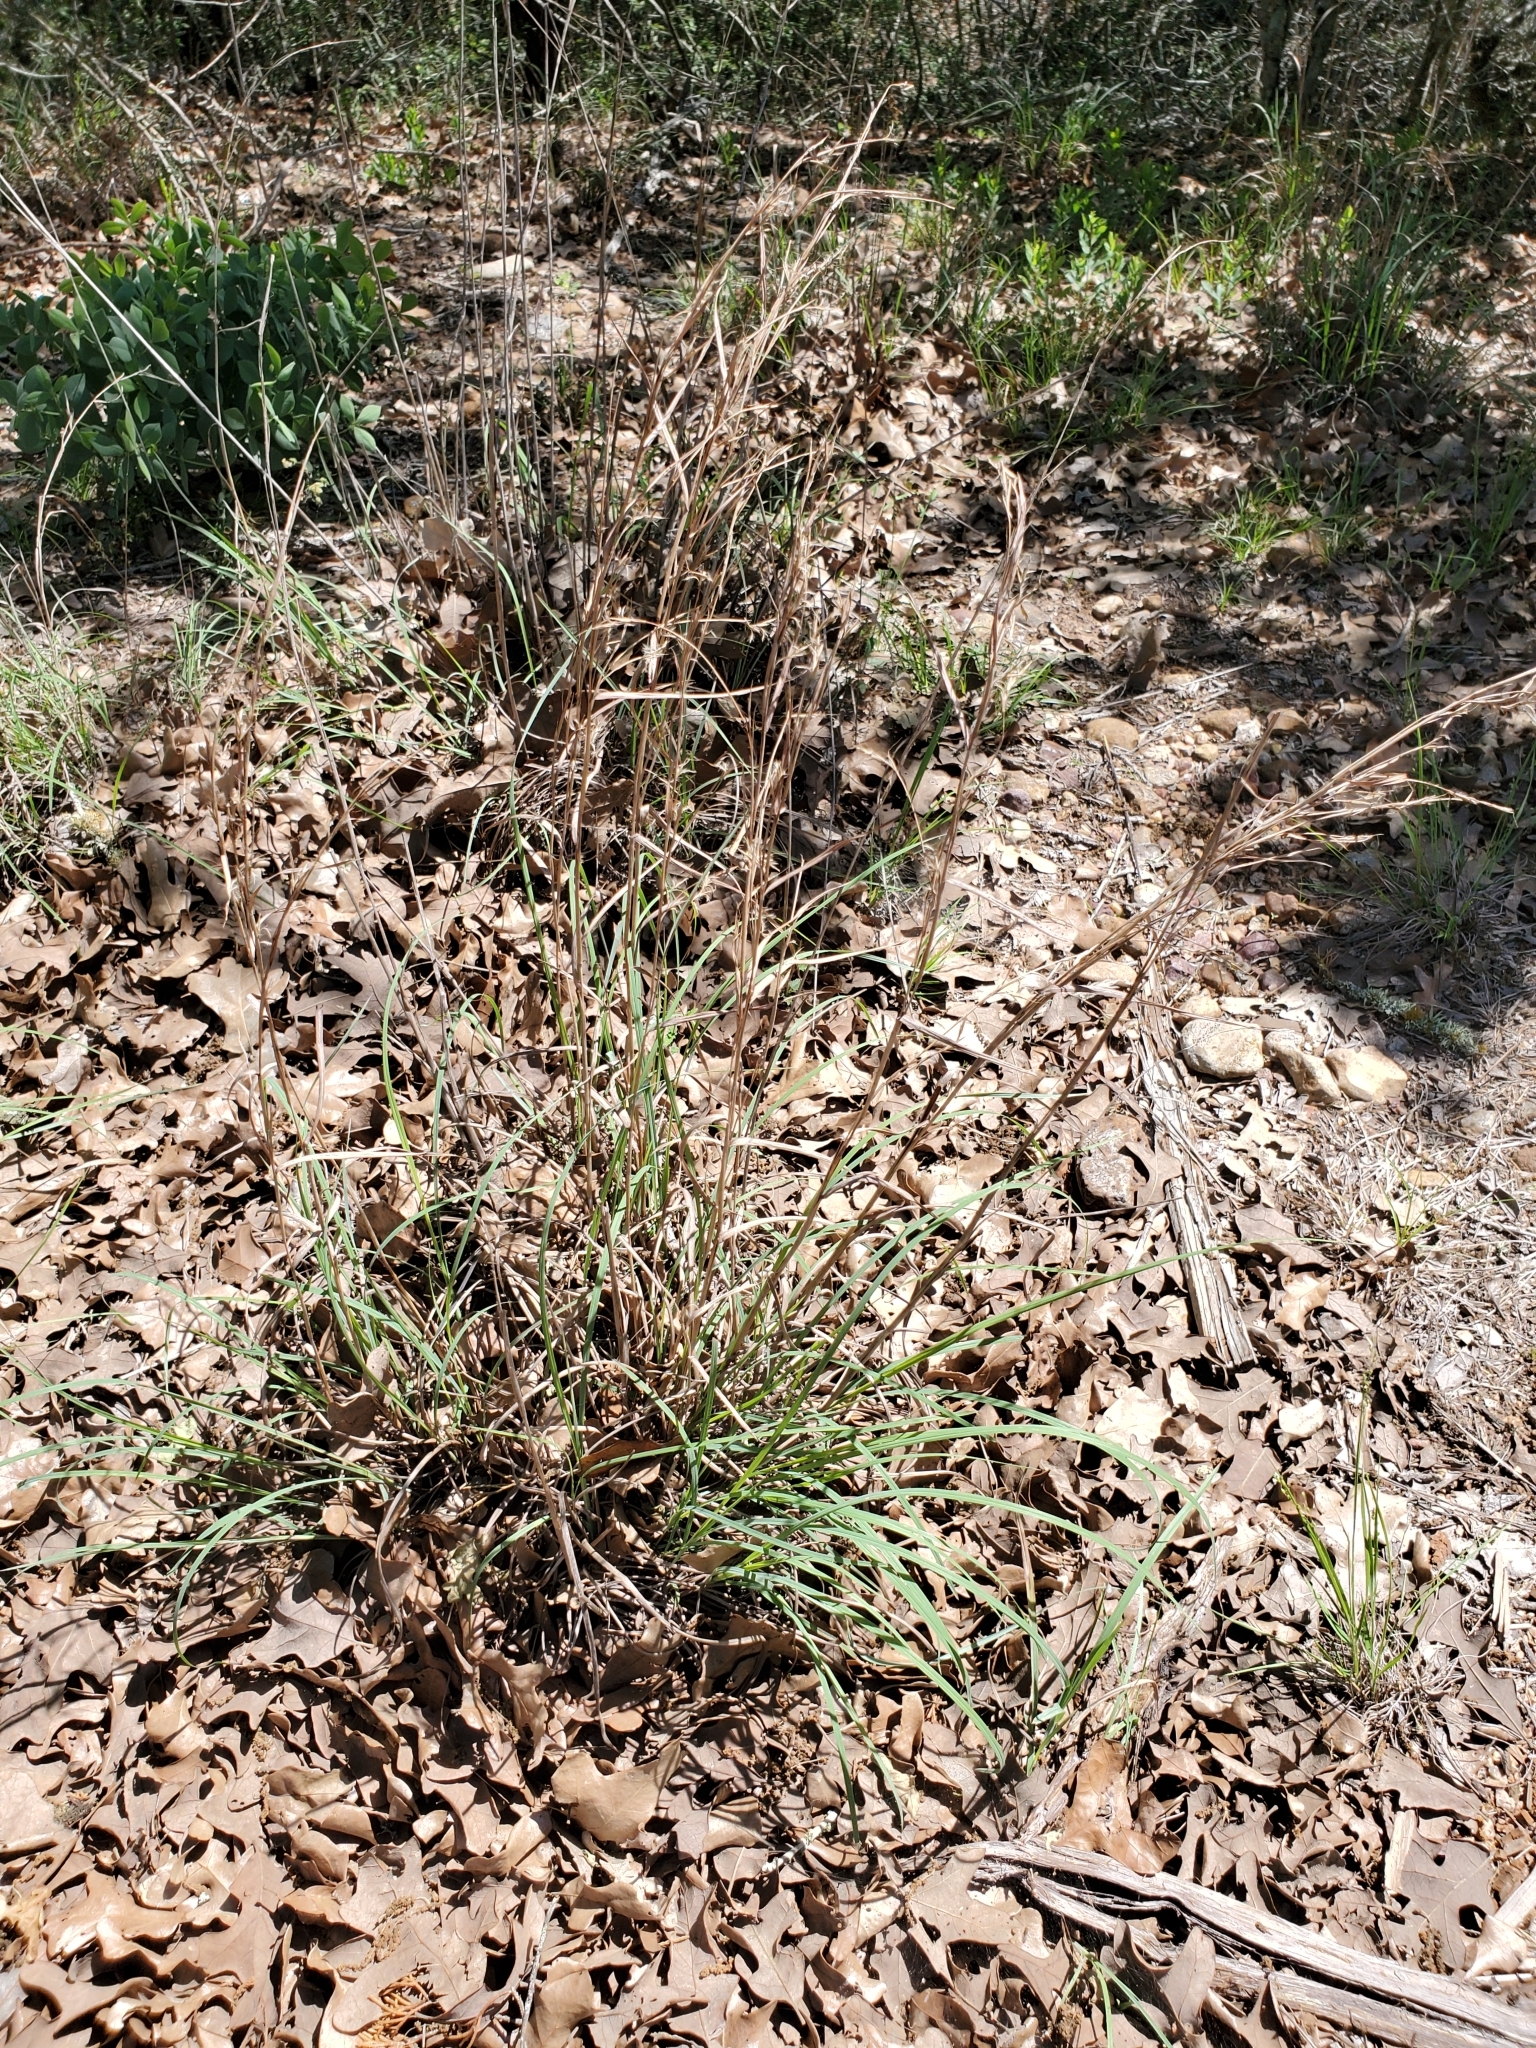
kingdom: Plantae
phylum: Tracheophyta
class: Liliopsida
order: Poales
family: Poaceae
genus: Schizachyrium
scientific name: Schizachyrium scoparium
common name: Little bluestem
